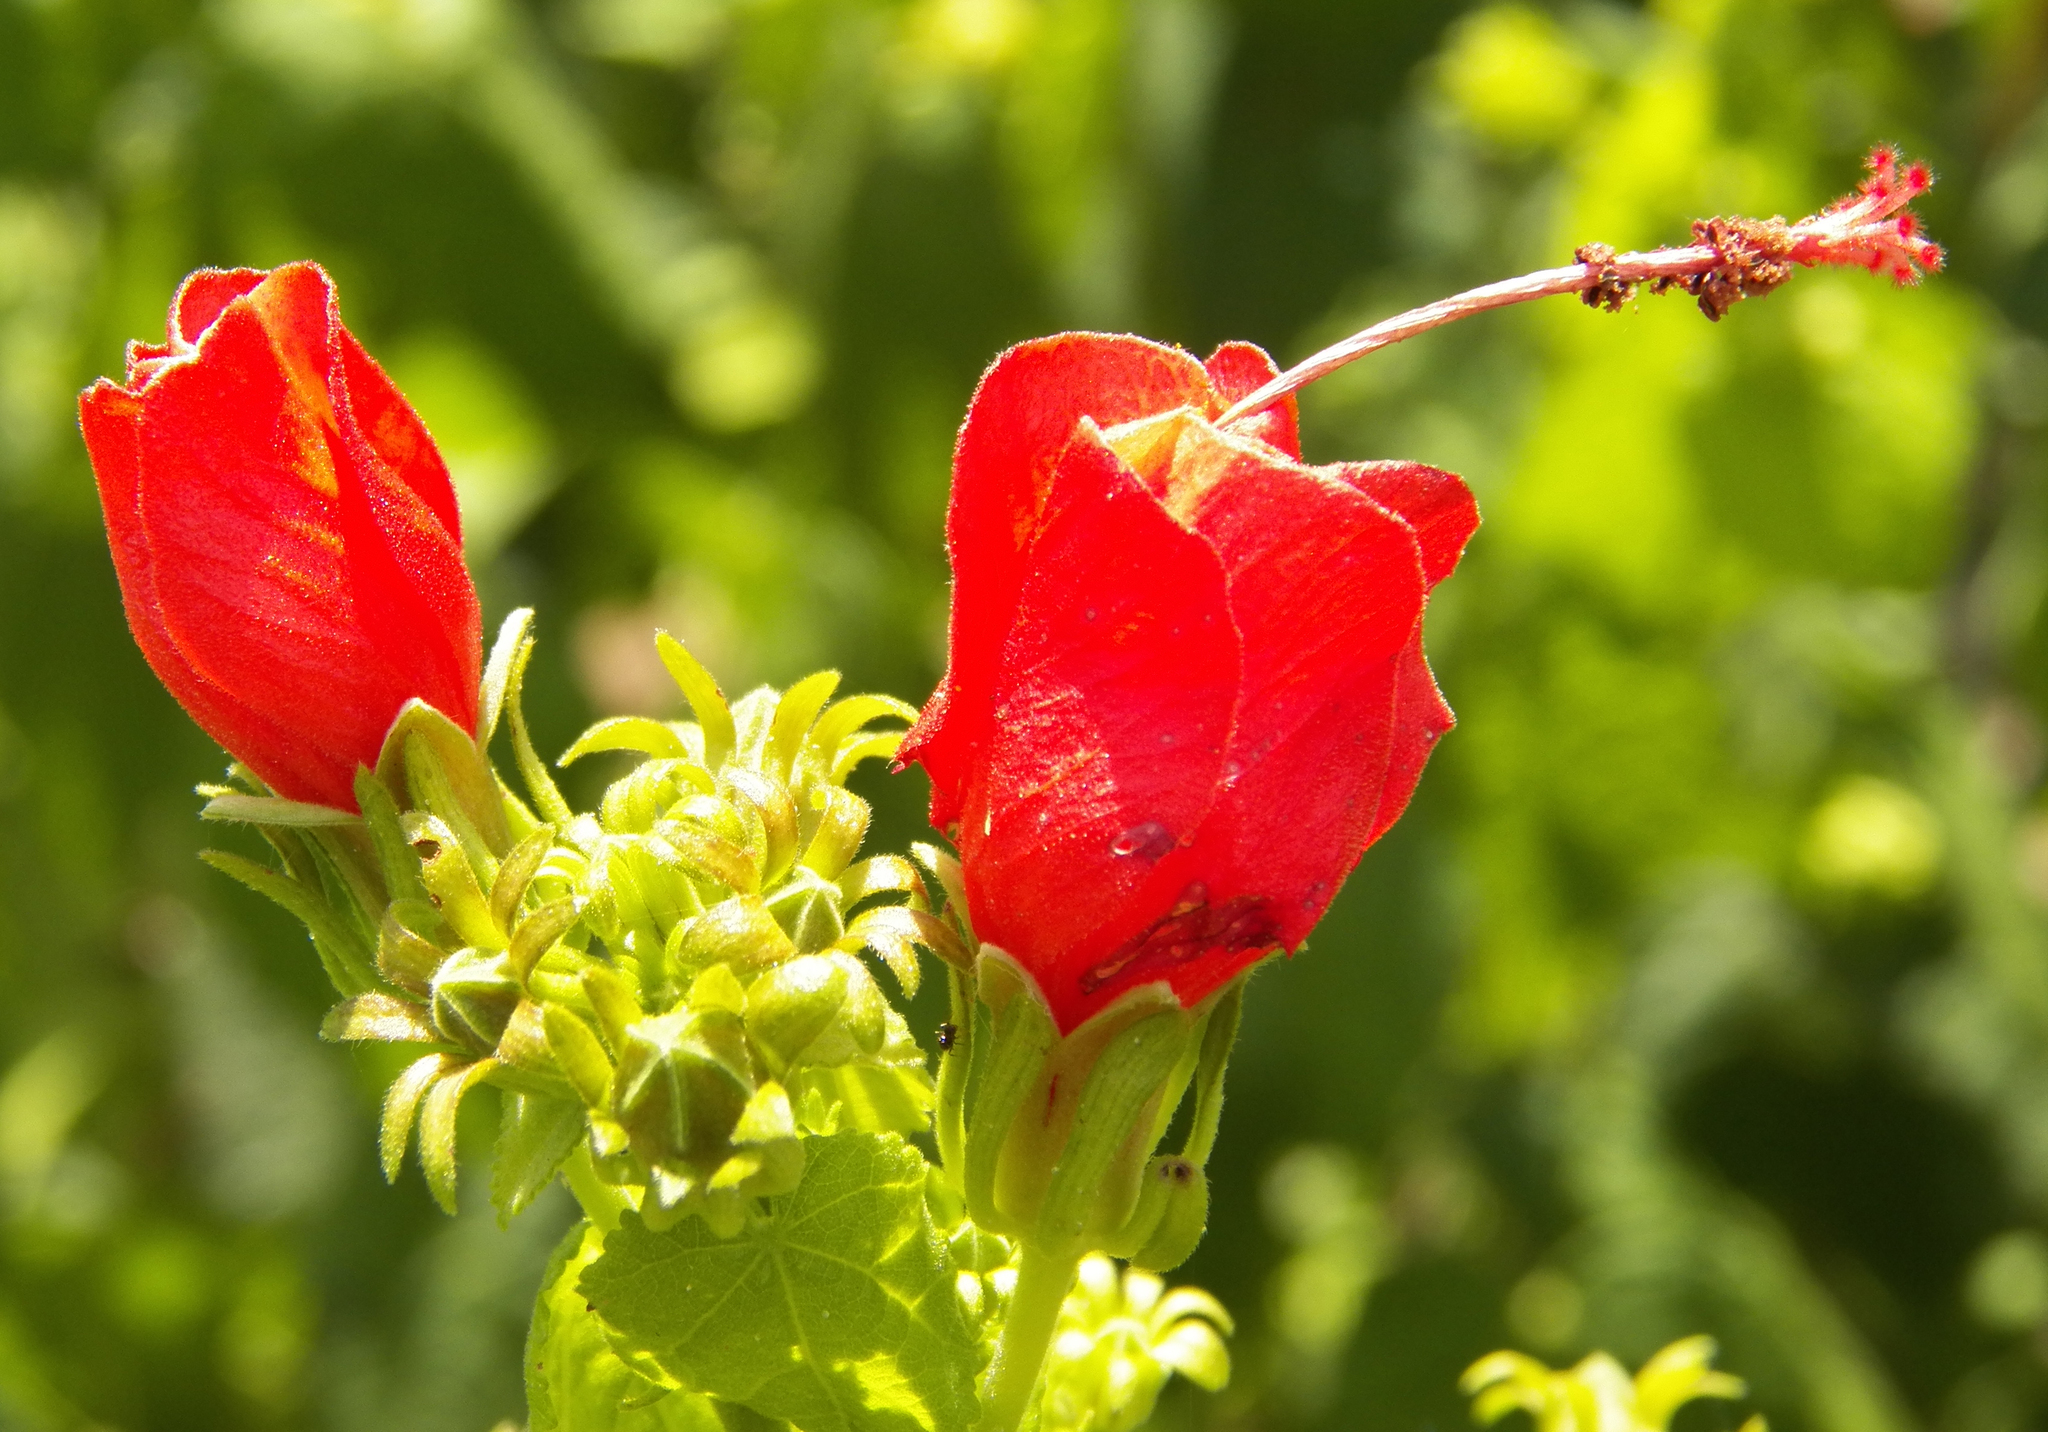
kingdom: Plantae
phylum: Tracheophyta
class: Magnoliopsida
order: Malvales
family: Malvaceae
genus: Malvaviscus
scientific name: Malvaviscus arboreus
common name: Wax mallow
